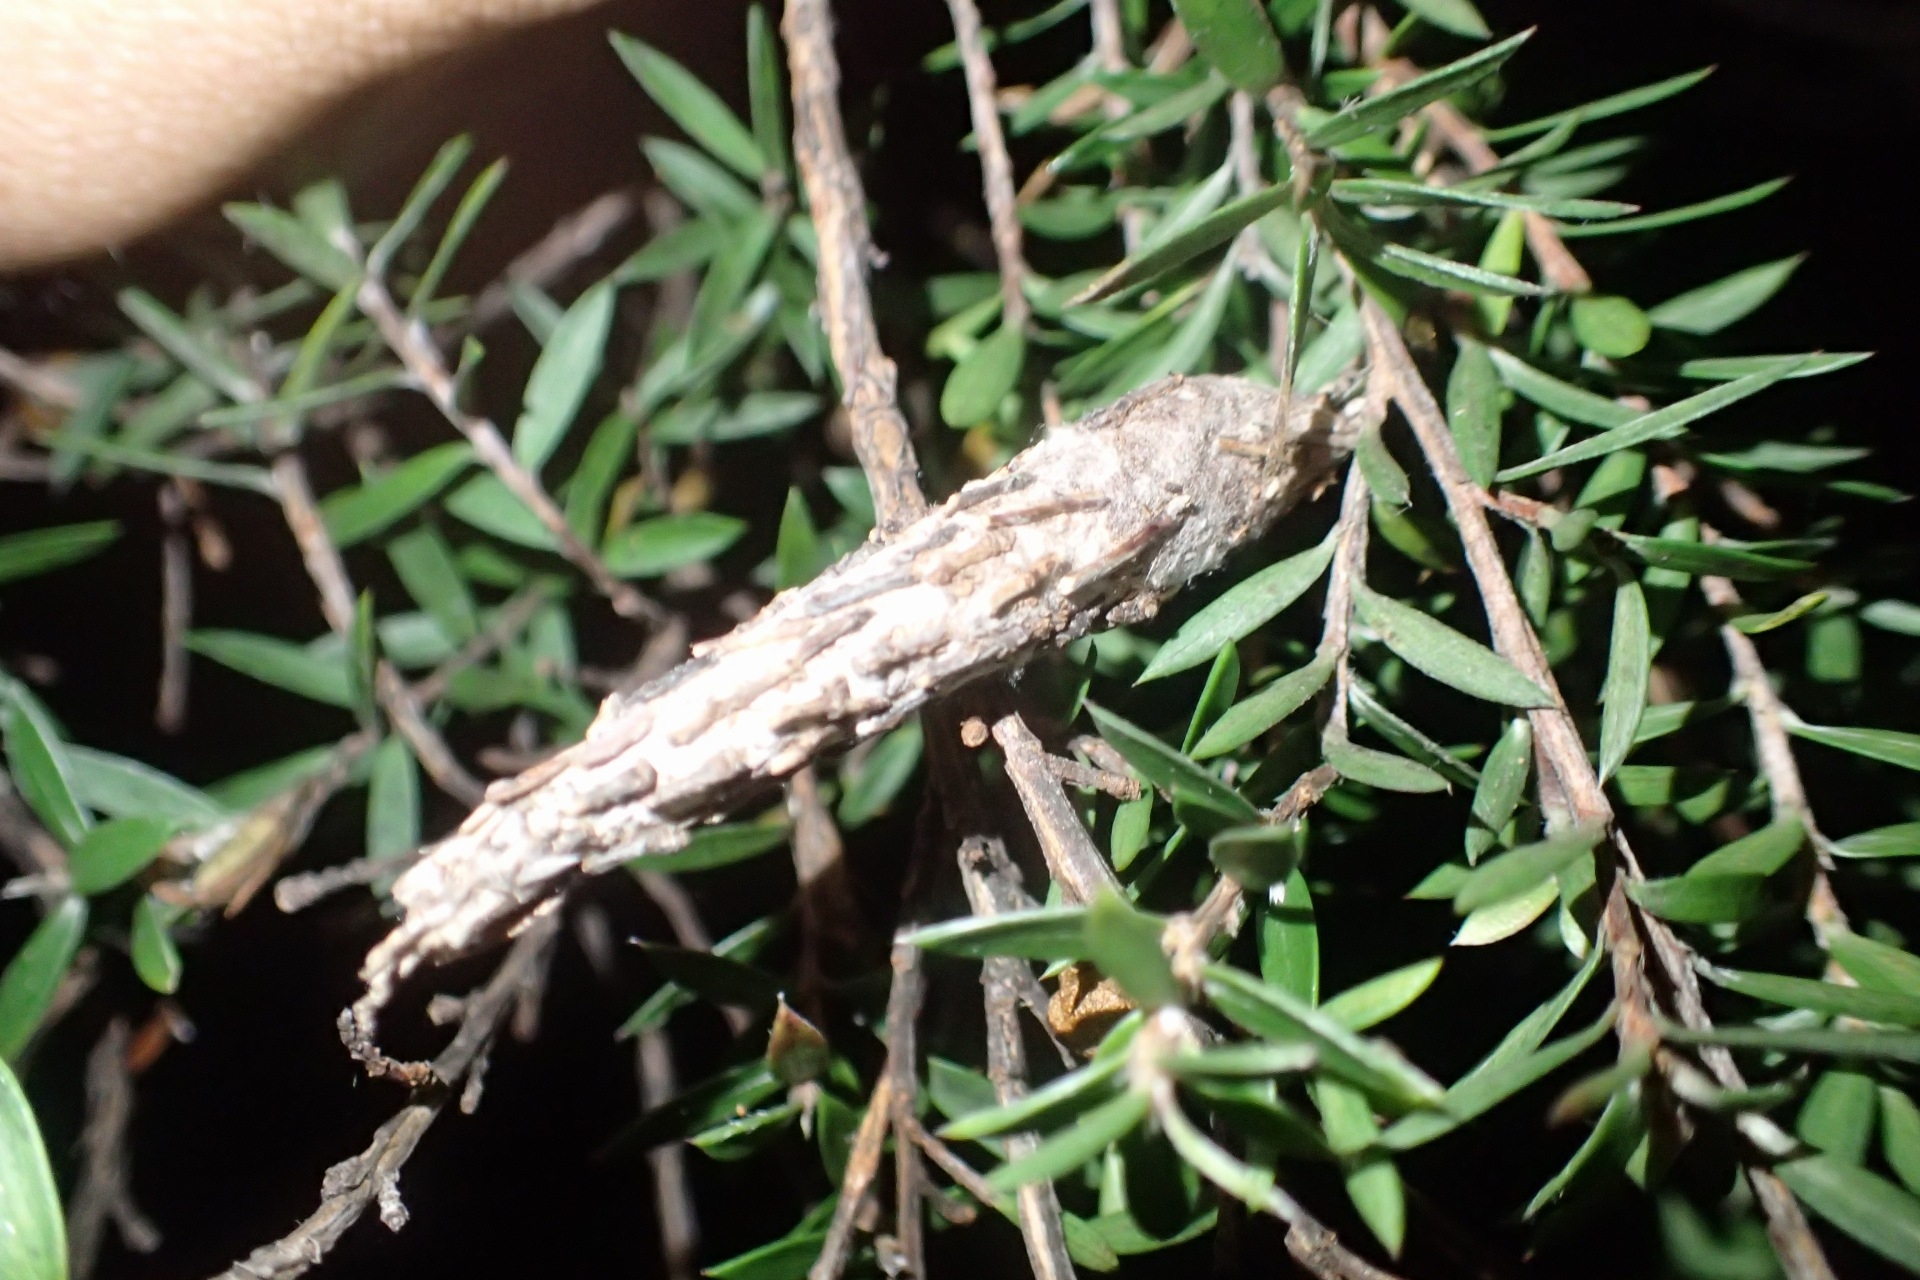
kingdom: Animalia
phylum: Arthropoda
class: Insecta
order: Lepidoptera
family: Psychidae
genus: Liothula
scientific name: Liothula omnivora
